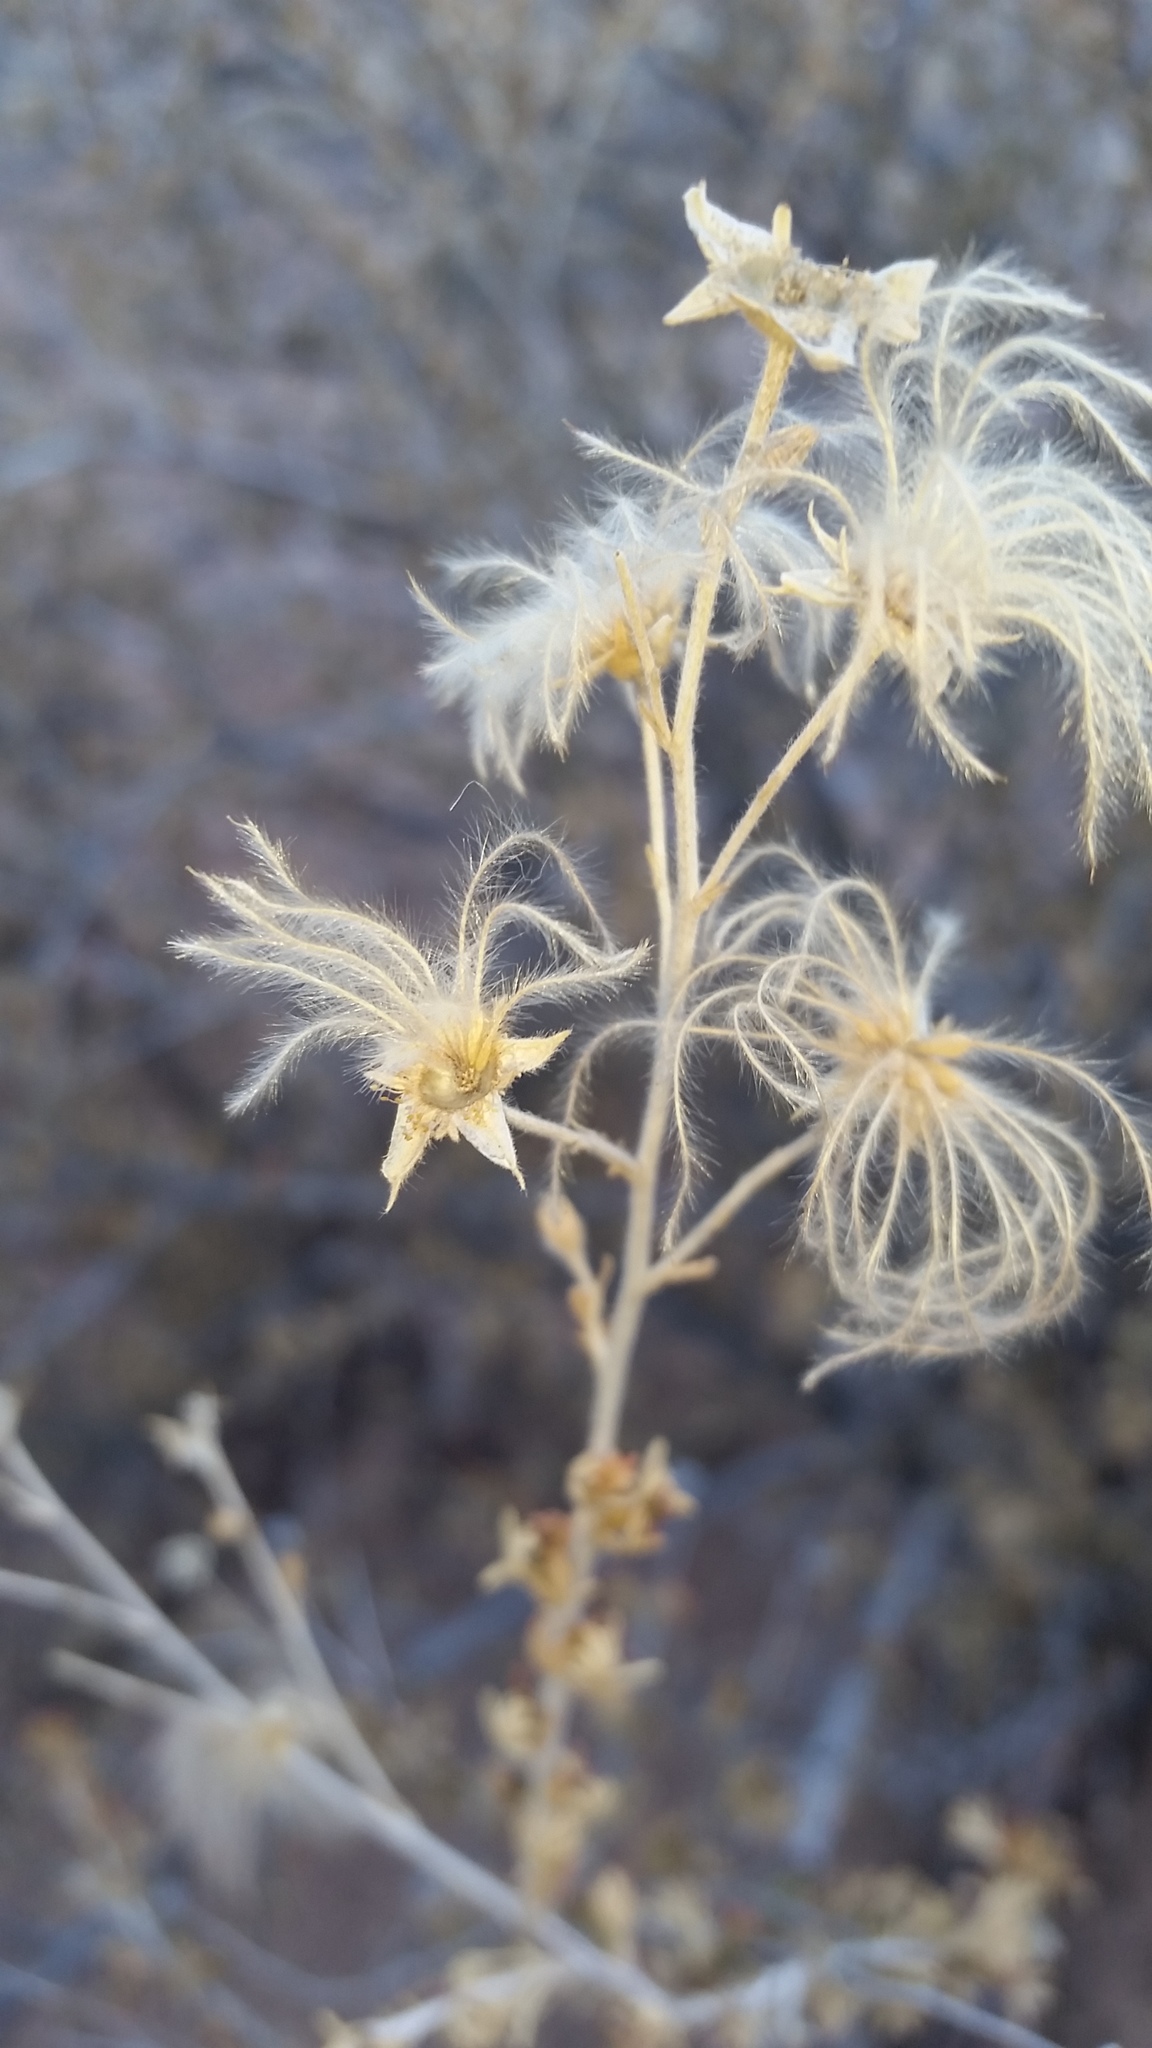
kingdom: Plantae
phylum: Tracheophyta
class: Magnoliopsida
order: Rosales
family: Rosaceae
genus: Fallugia
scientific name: Fallugia paradoxa
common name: Apache-plume
